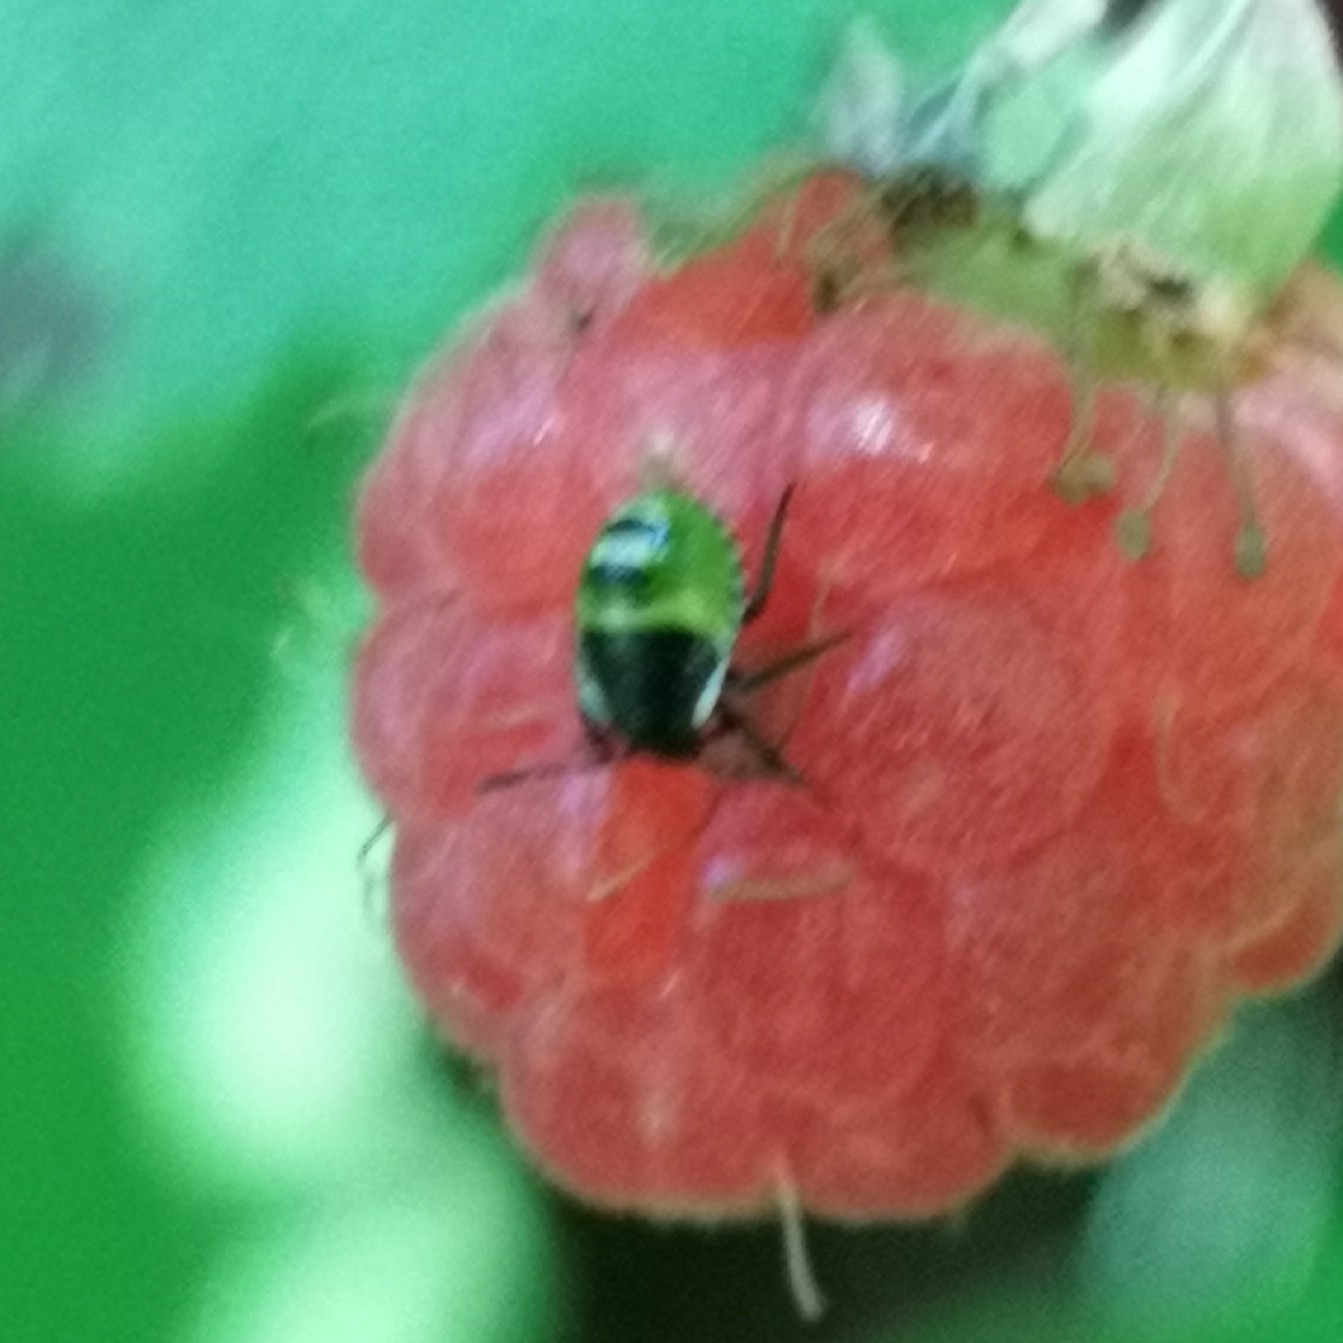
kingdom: Animalia
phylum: Arthropoda
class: Insecta
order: Hemiptera
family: Pentatomidae
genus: Palomena
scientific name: Palomena prasina
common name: Green shieldbug
